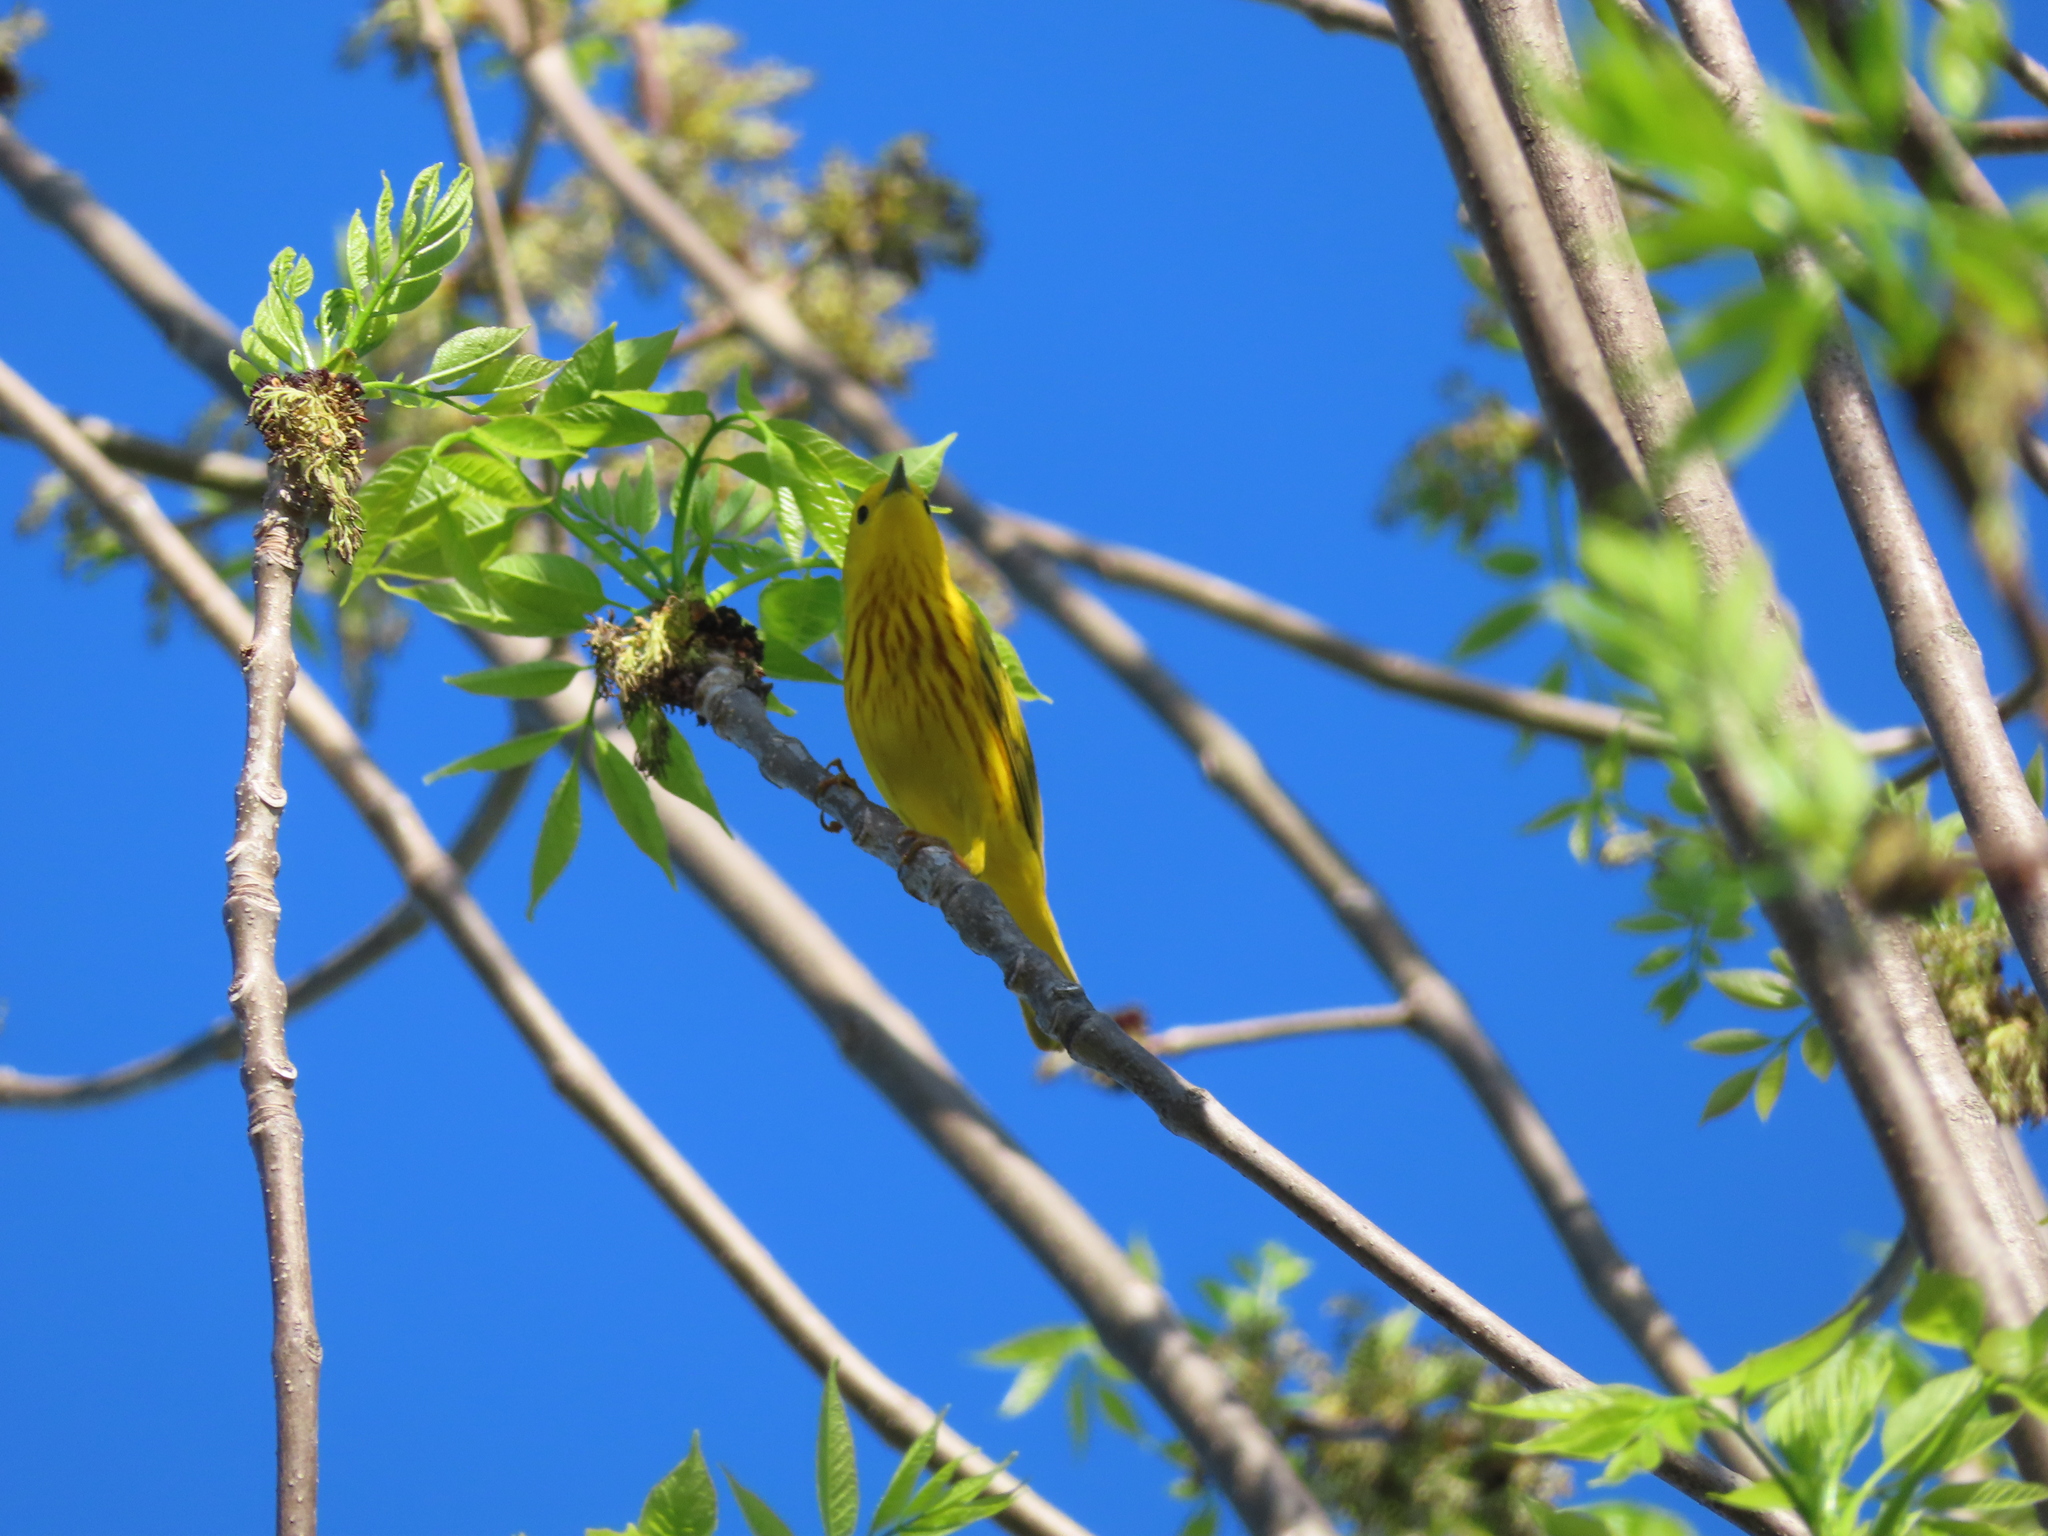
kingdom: Animalia
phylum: Chordata
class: Aves
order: Passeriformes
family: Parulidae
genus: Setophaga
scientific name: Setophaga petechia
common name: Yellow warbler
